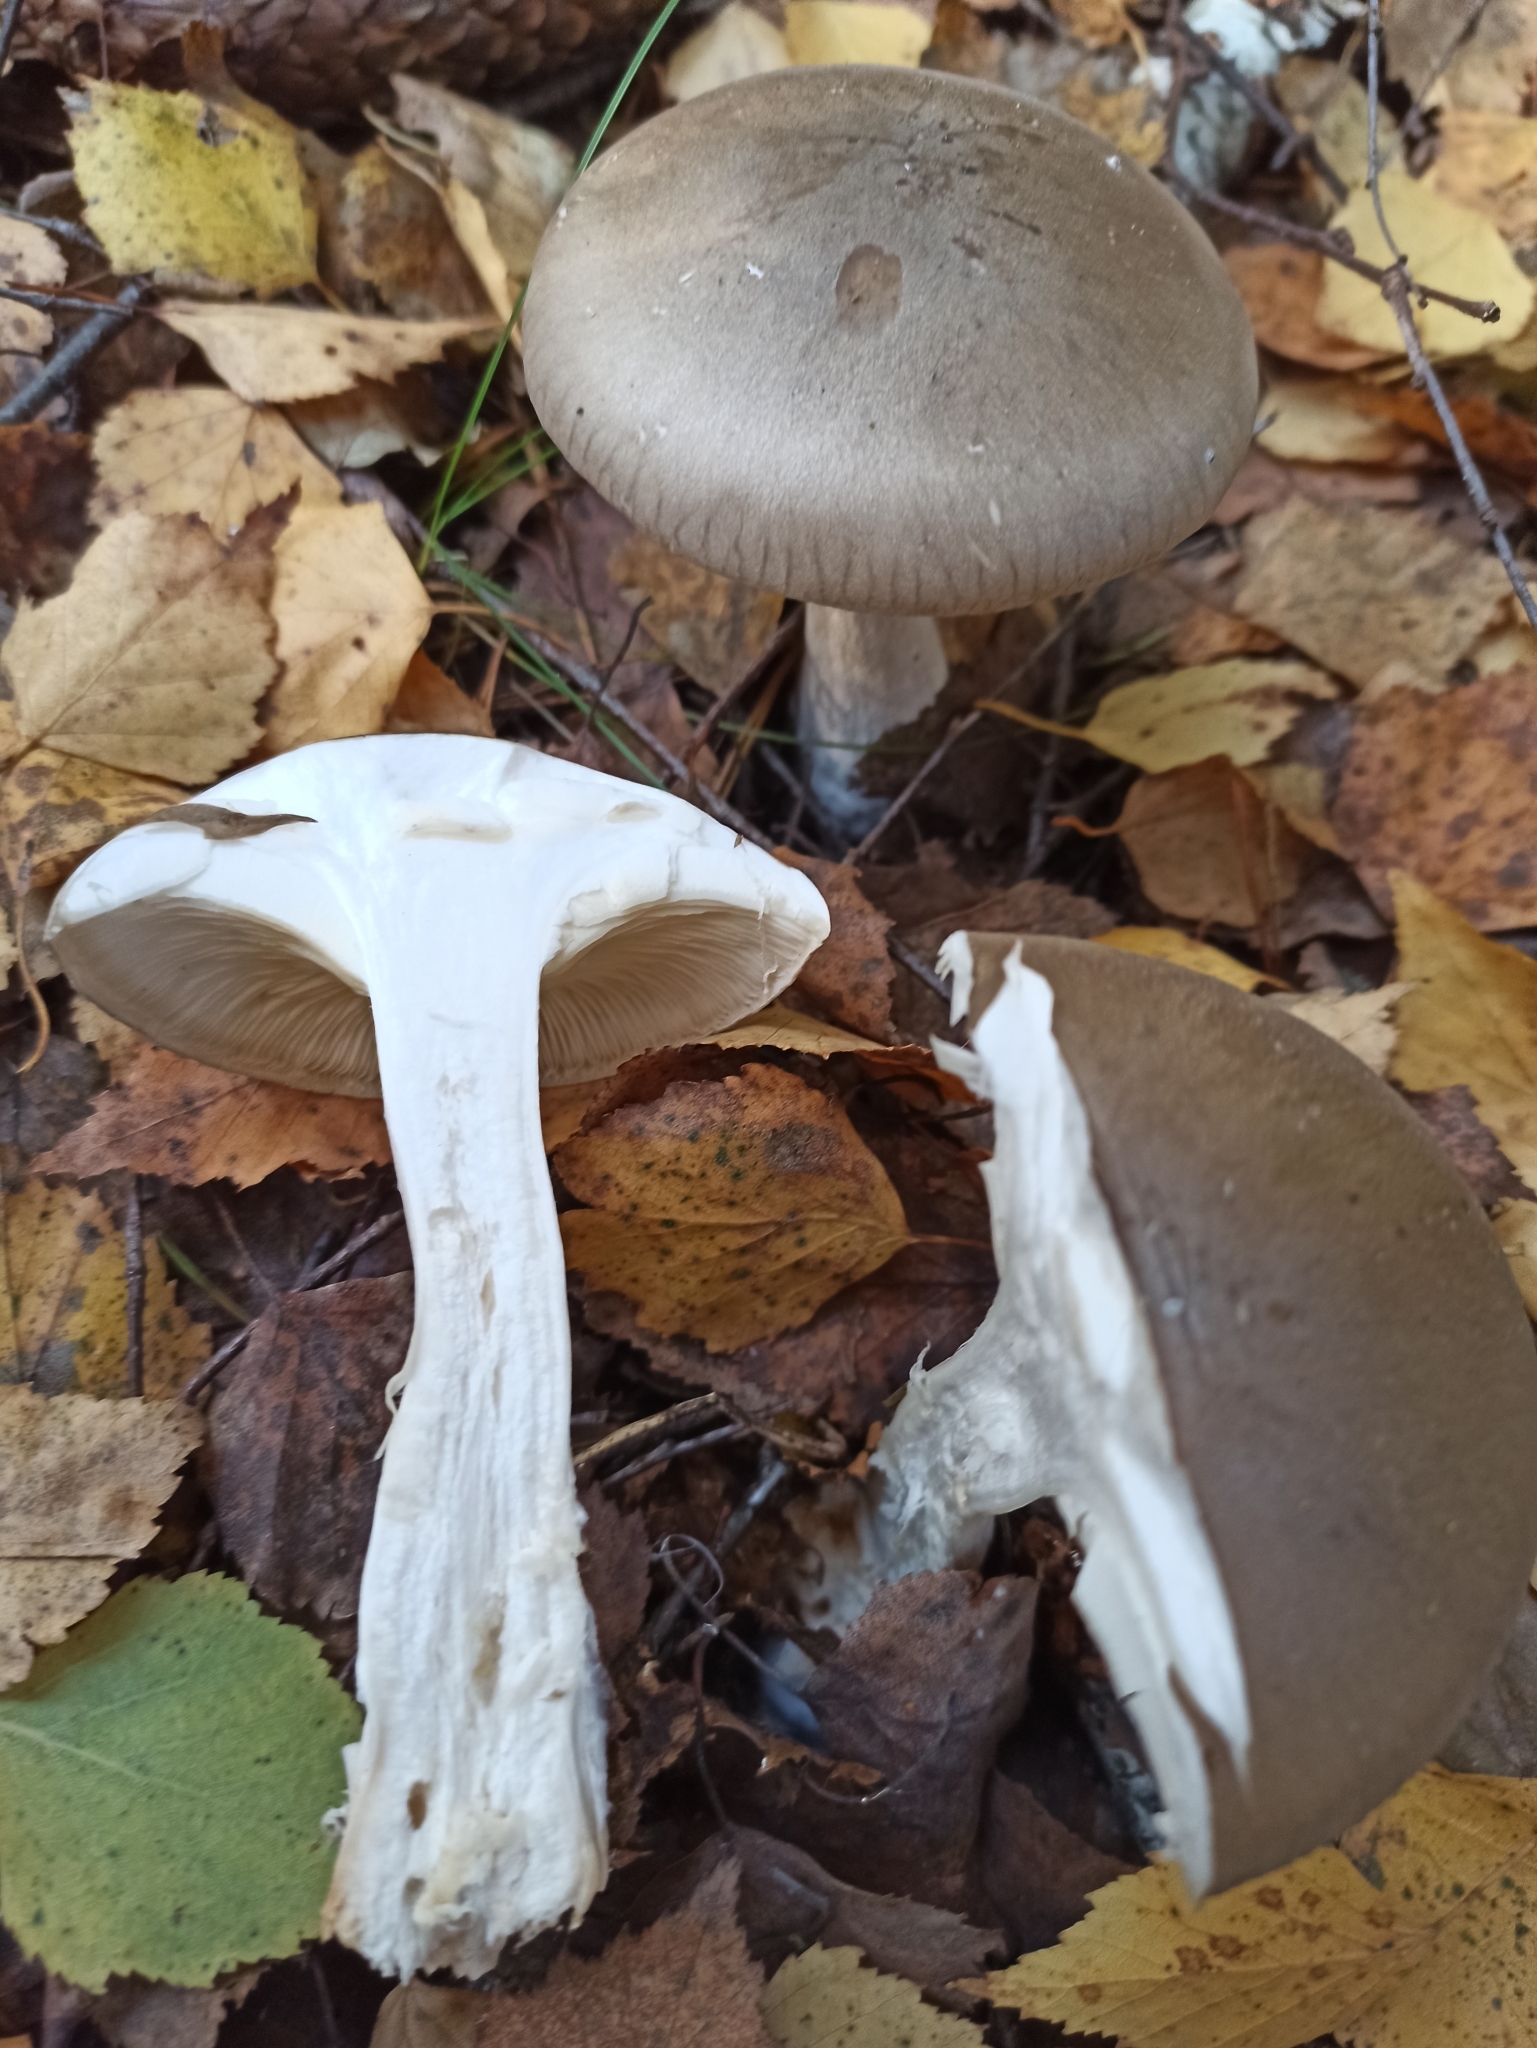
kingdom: Fungi
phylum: Basidiomycota
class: Agaricomycetes
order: Agaricales
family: Tricholomataceae
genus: Clitocybe
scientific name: Clitocybe nebularis
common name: Clouded agaric
